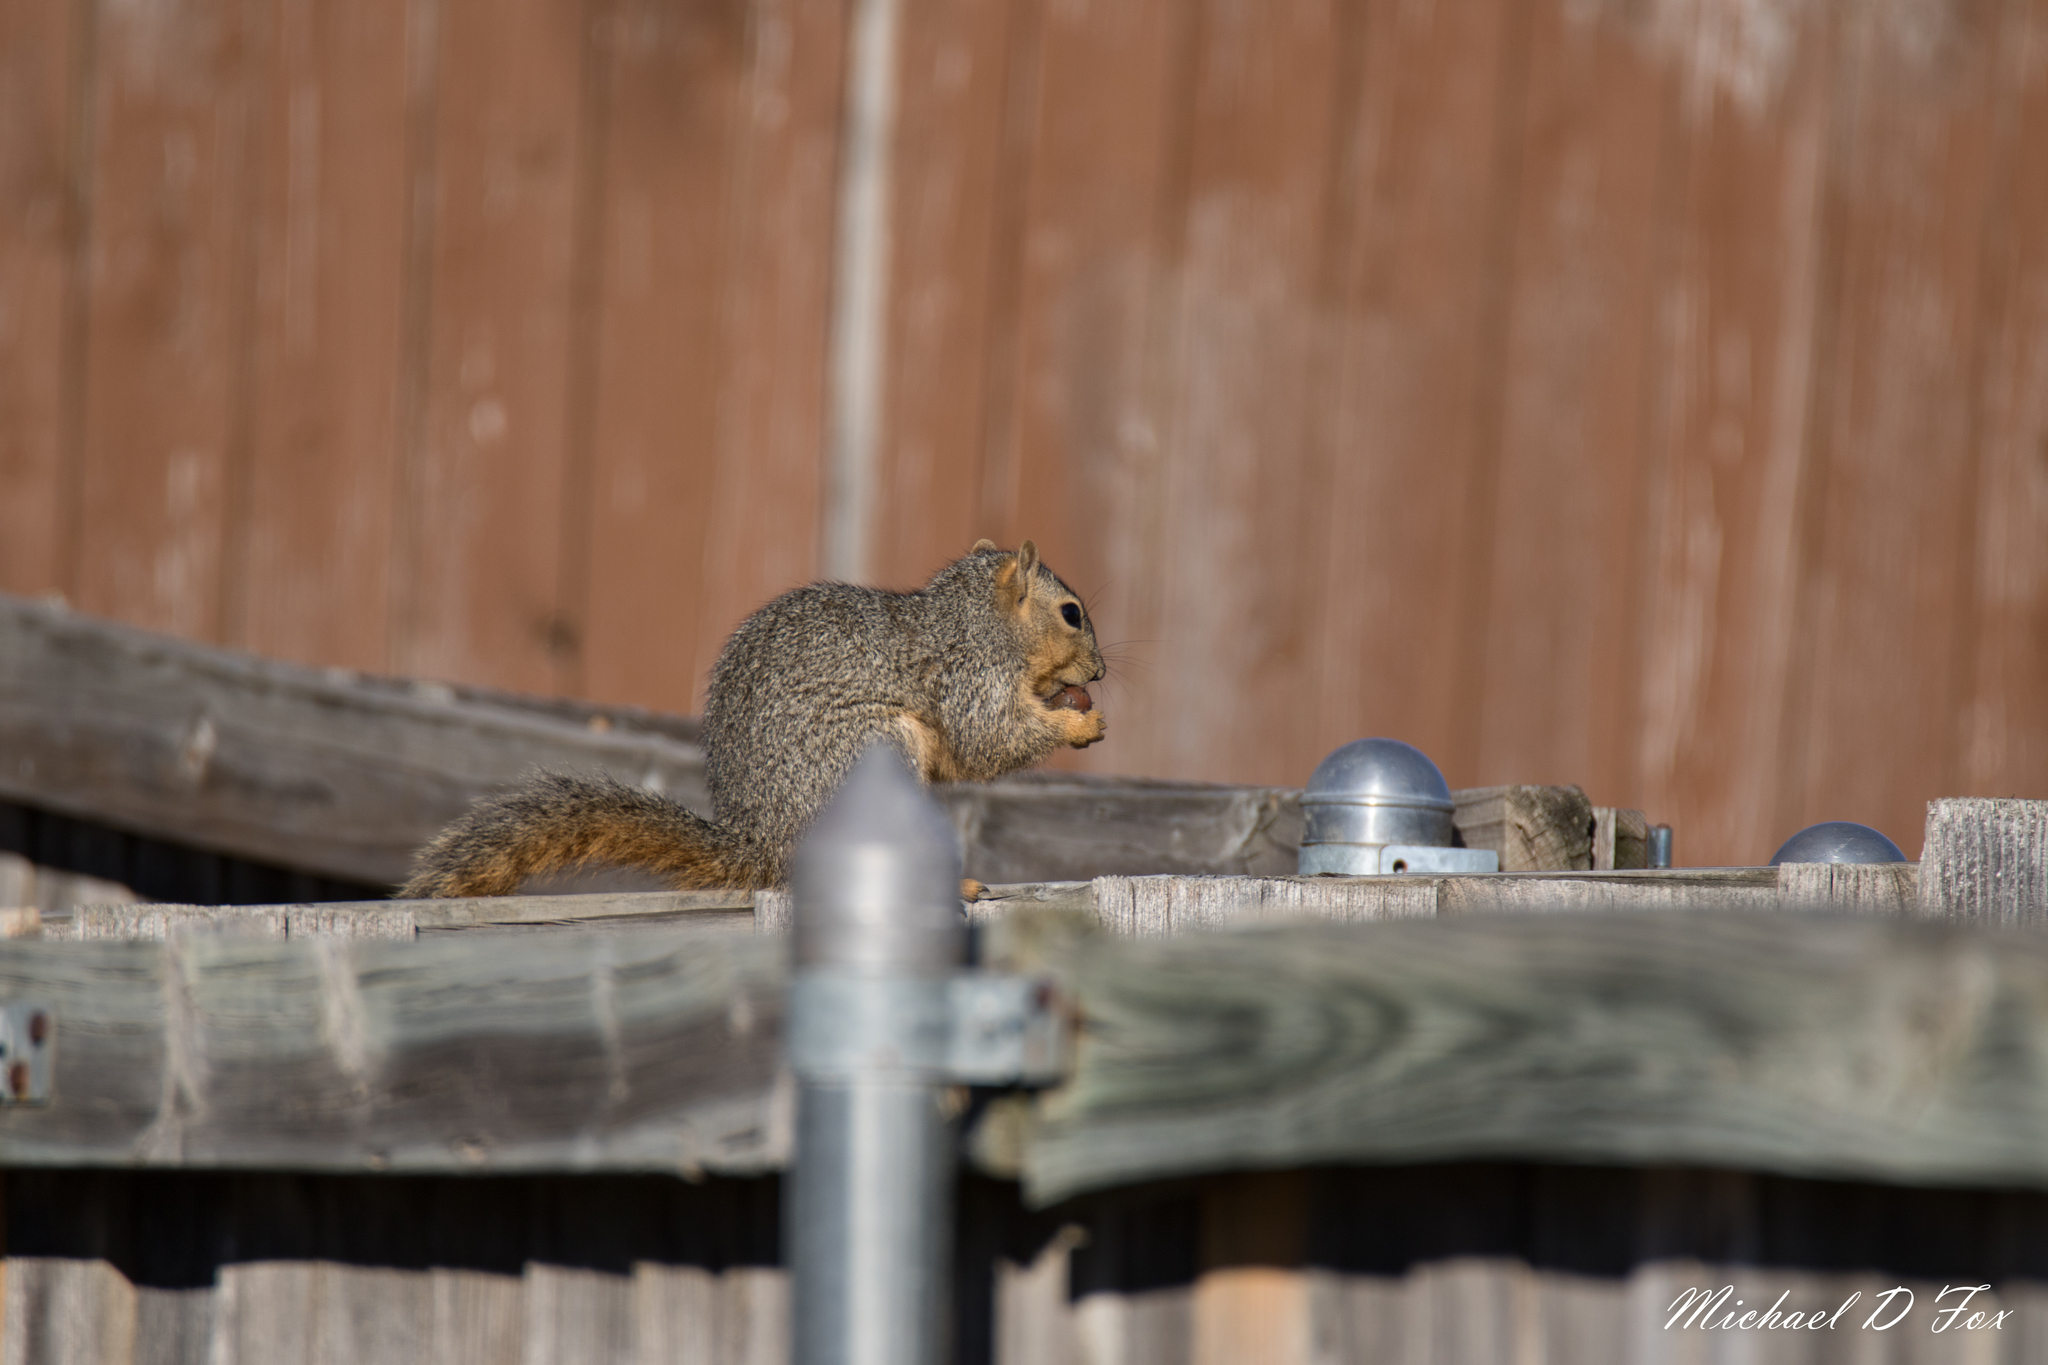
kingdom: Animalia
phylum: Chordata
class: Mammalia
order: Rodentia
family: Sciuridae
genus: Sciurus
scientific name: Sciurus niger
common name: Fox squirrel
